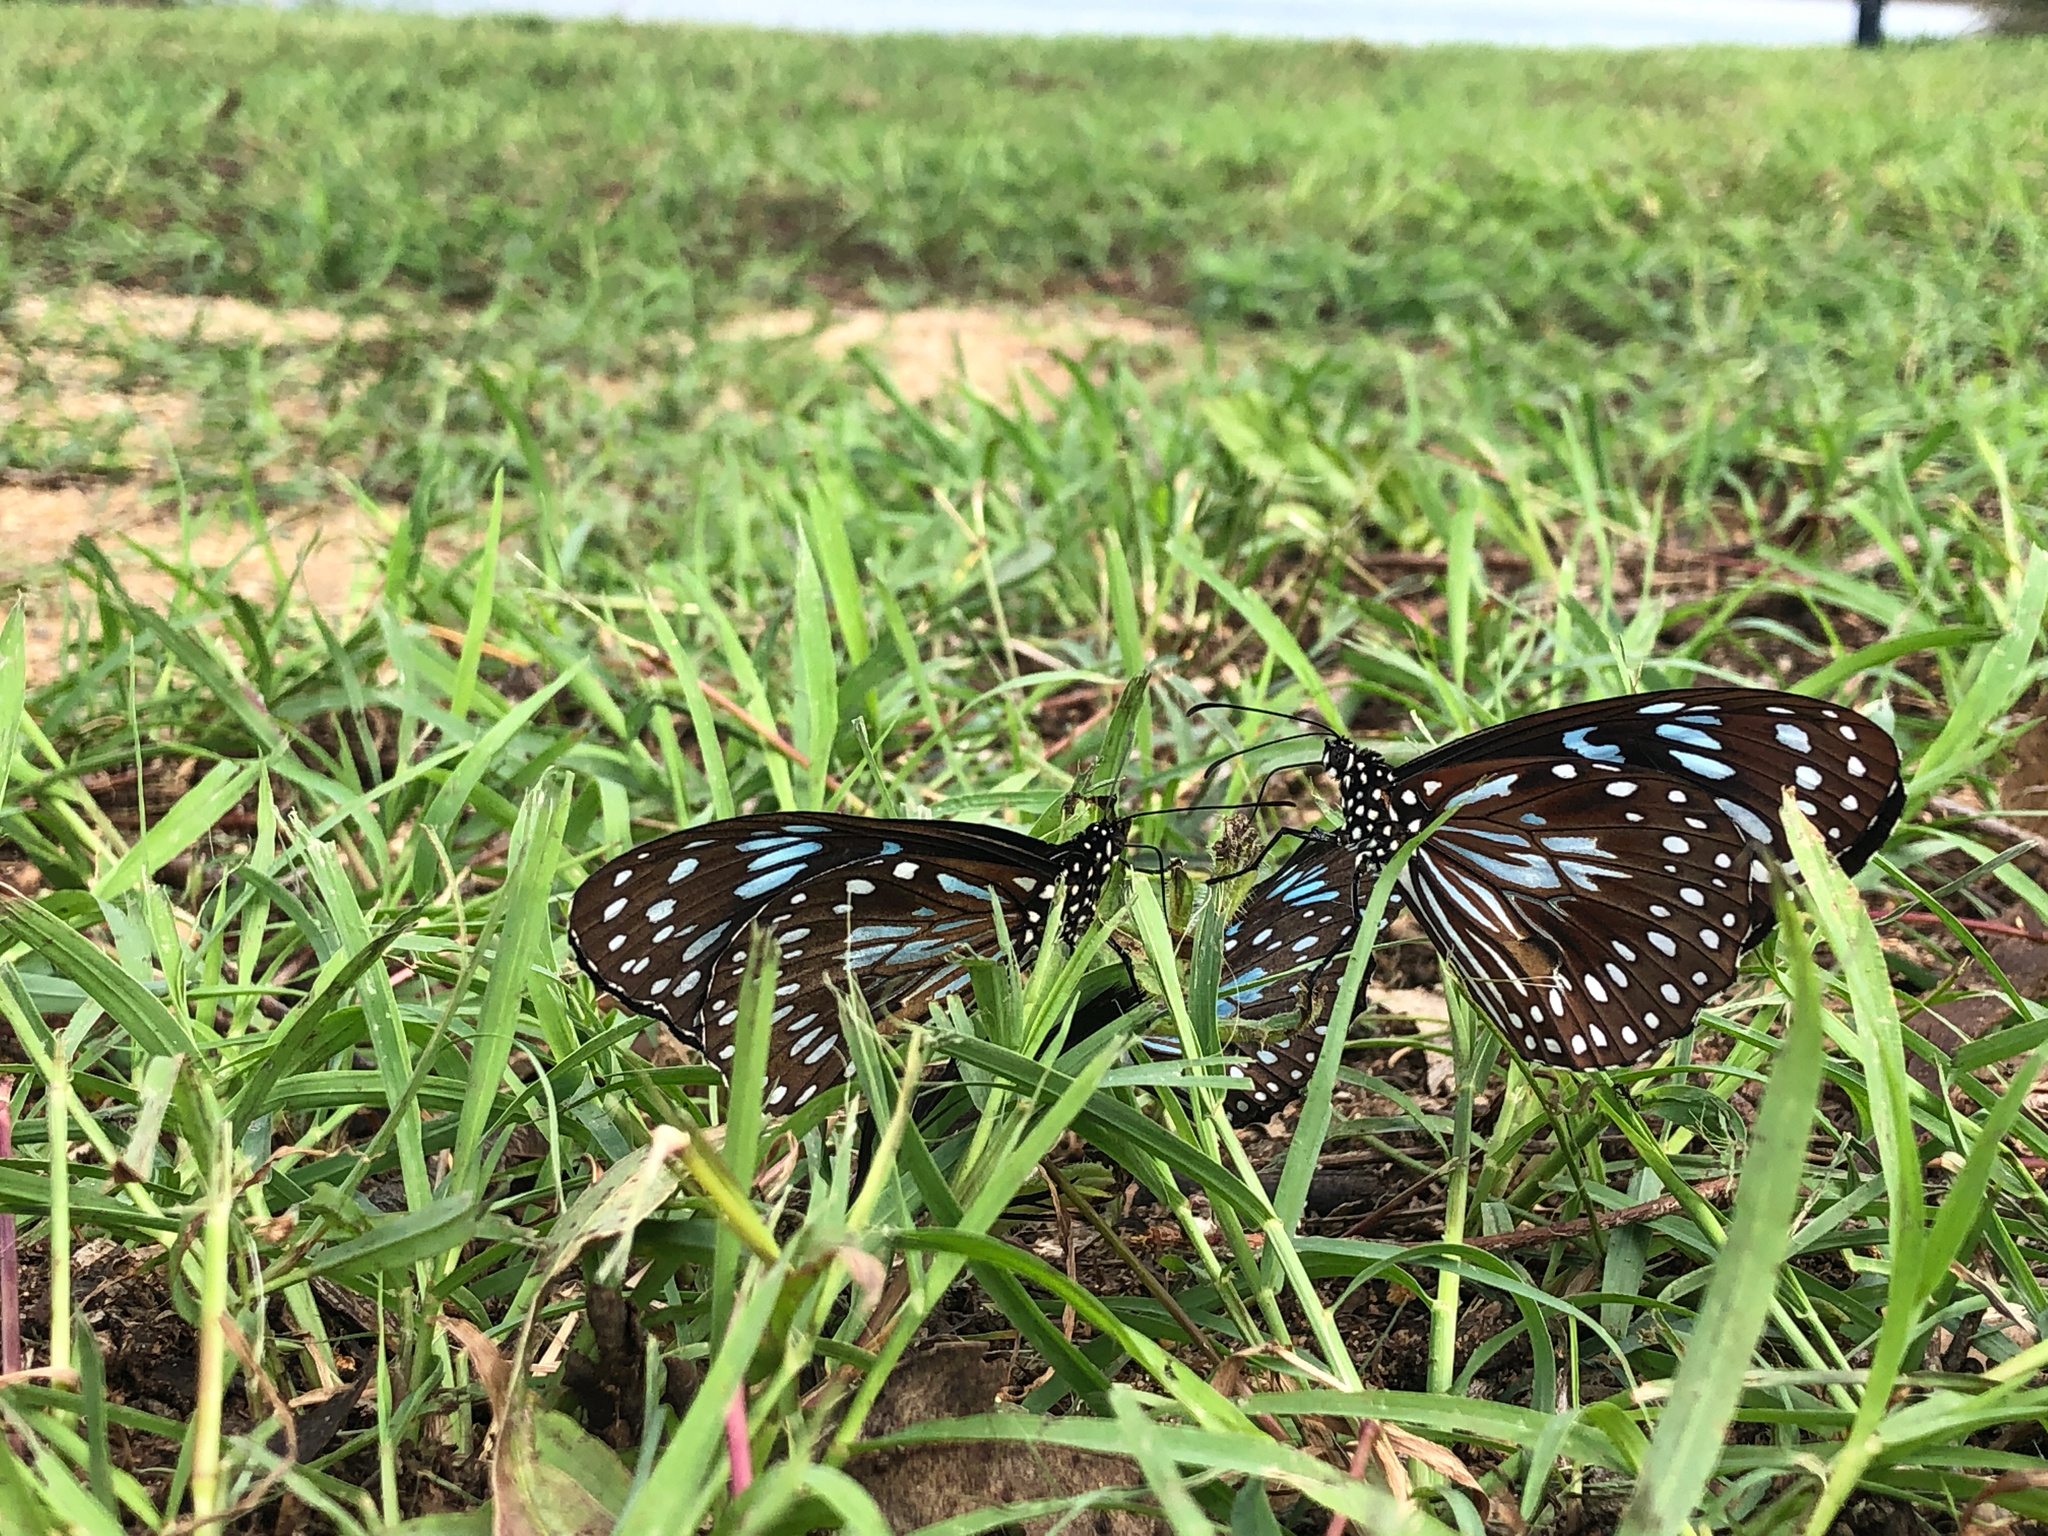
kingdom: Animalia
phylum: Arthropoda
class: Insecta
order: Lepidoptera
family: Nymphalidae
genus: Tirumala
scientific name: Tirumala hamata
